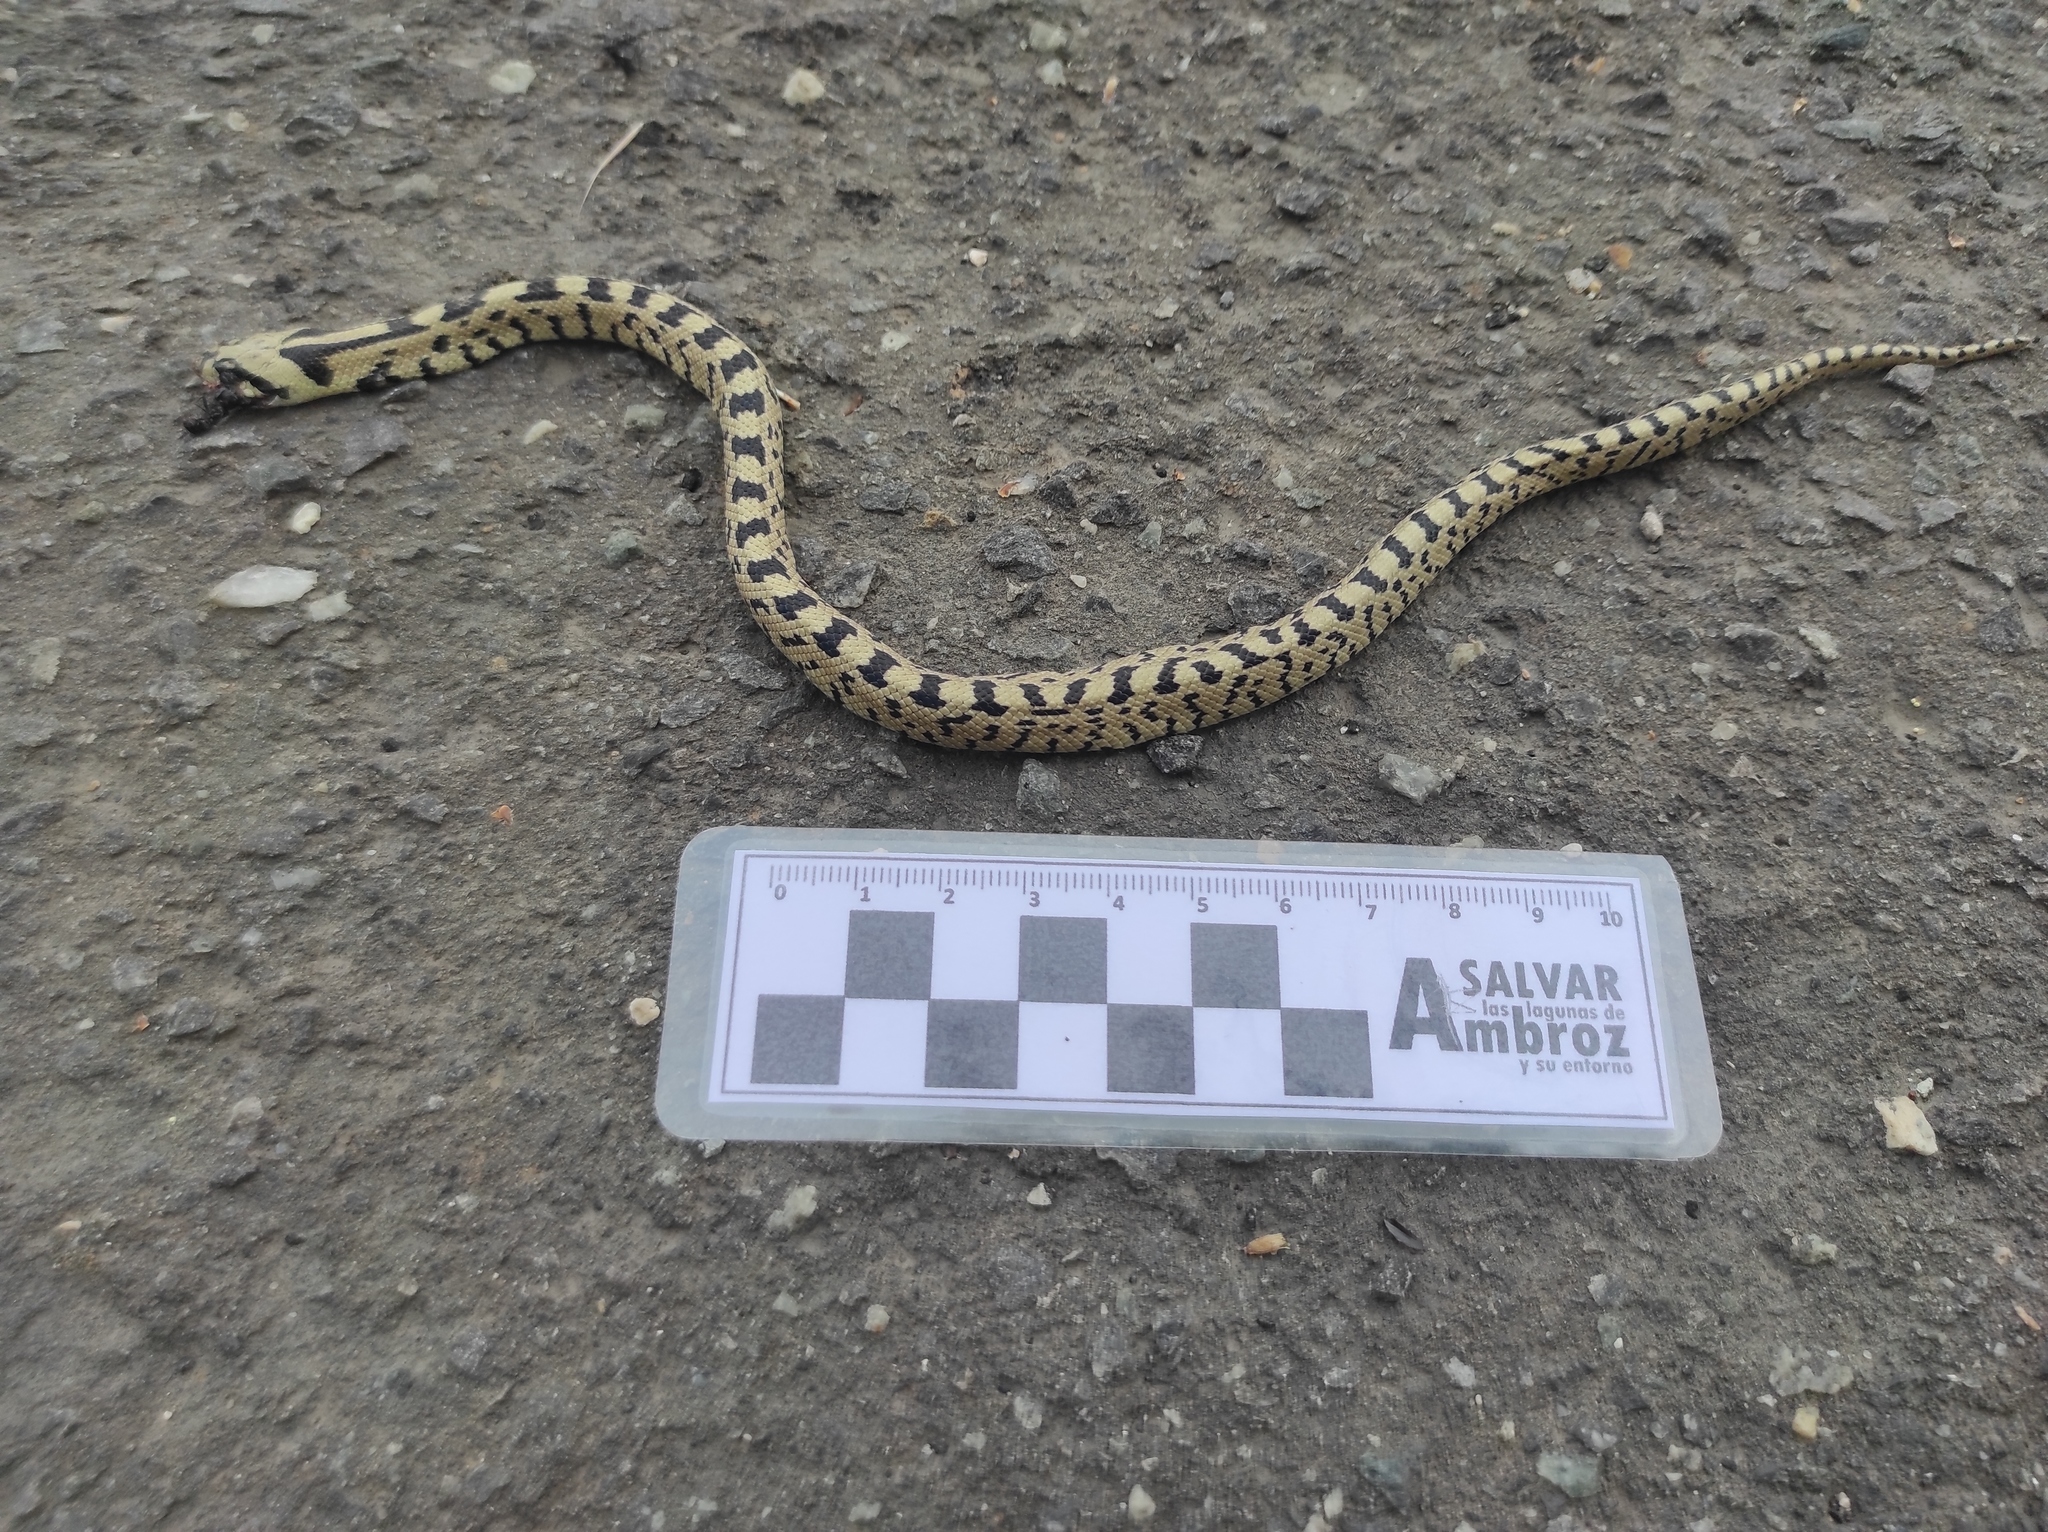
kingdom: Animalia
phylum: Chordata
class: Squamata
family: Colubridae
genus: Zamenis
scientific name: Zamenis scalaris
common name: Ladder snakes
